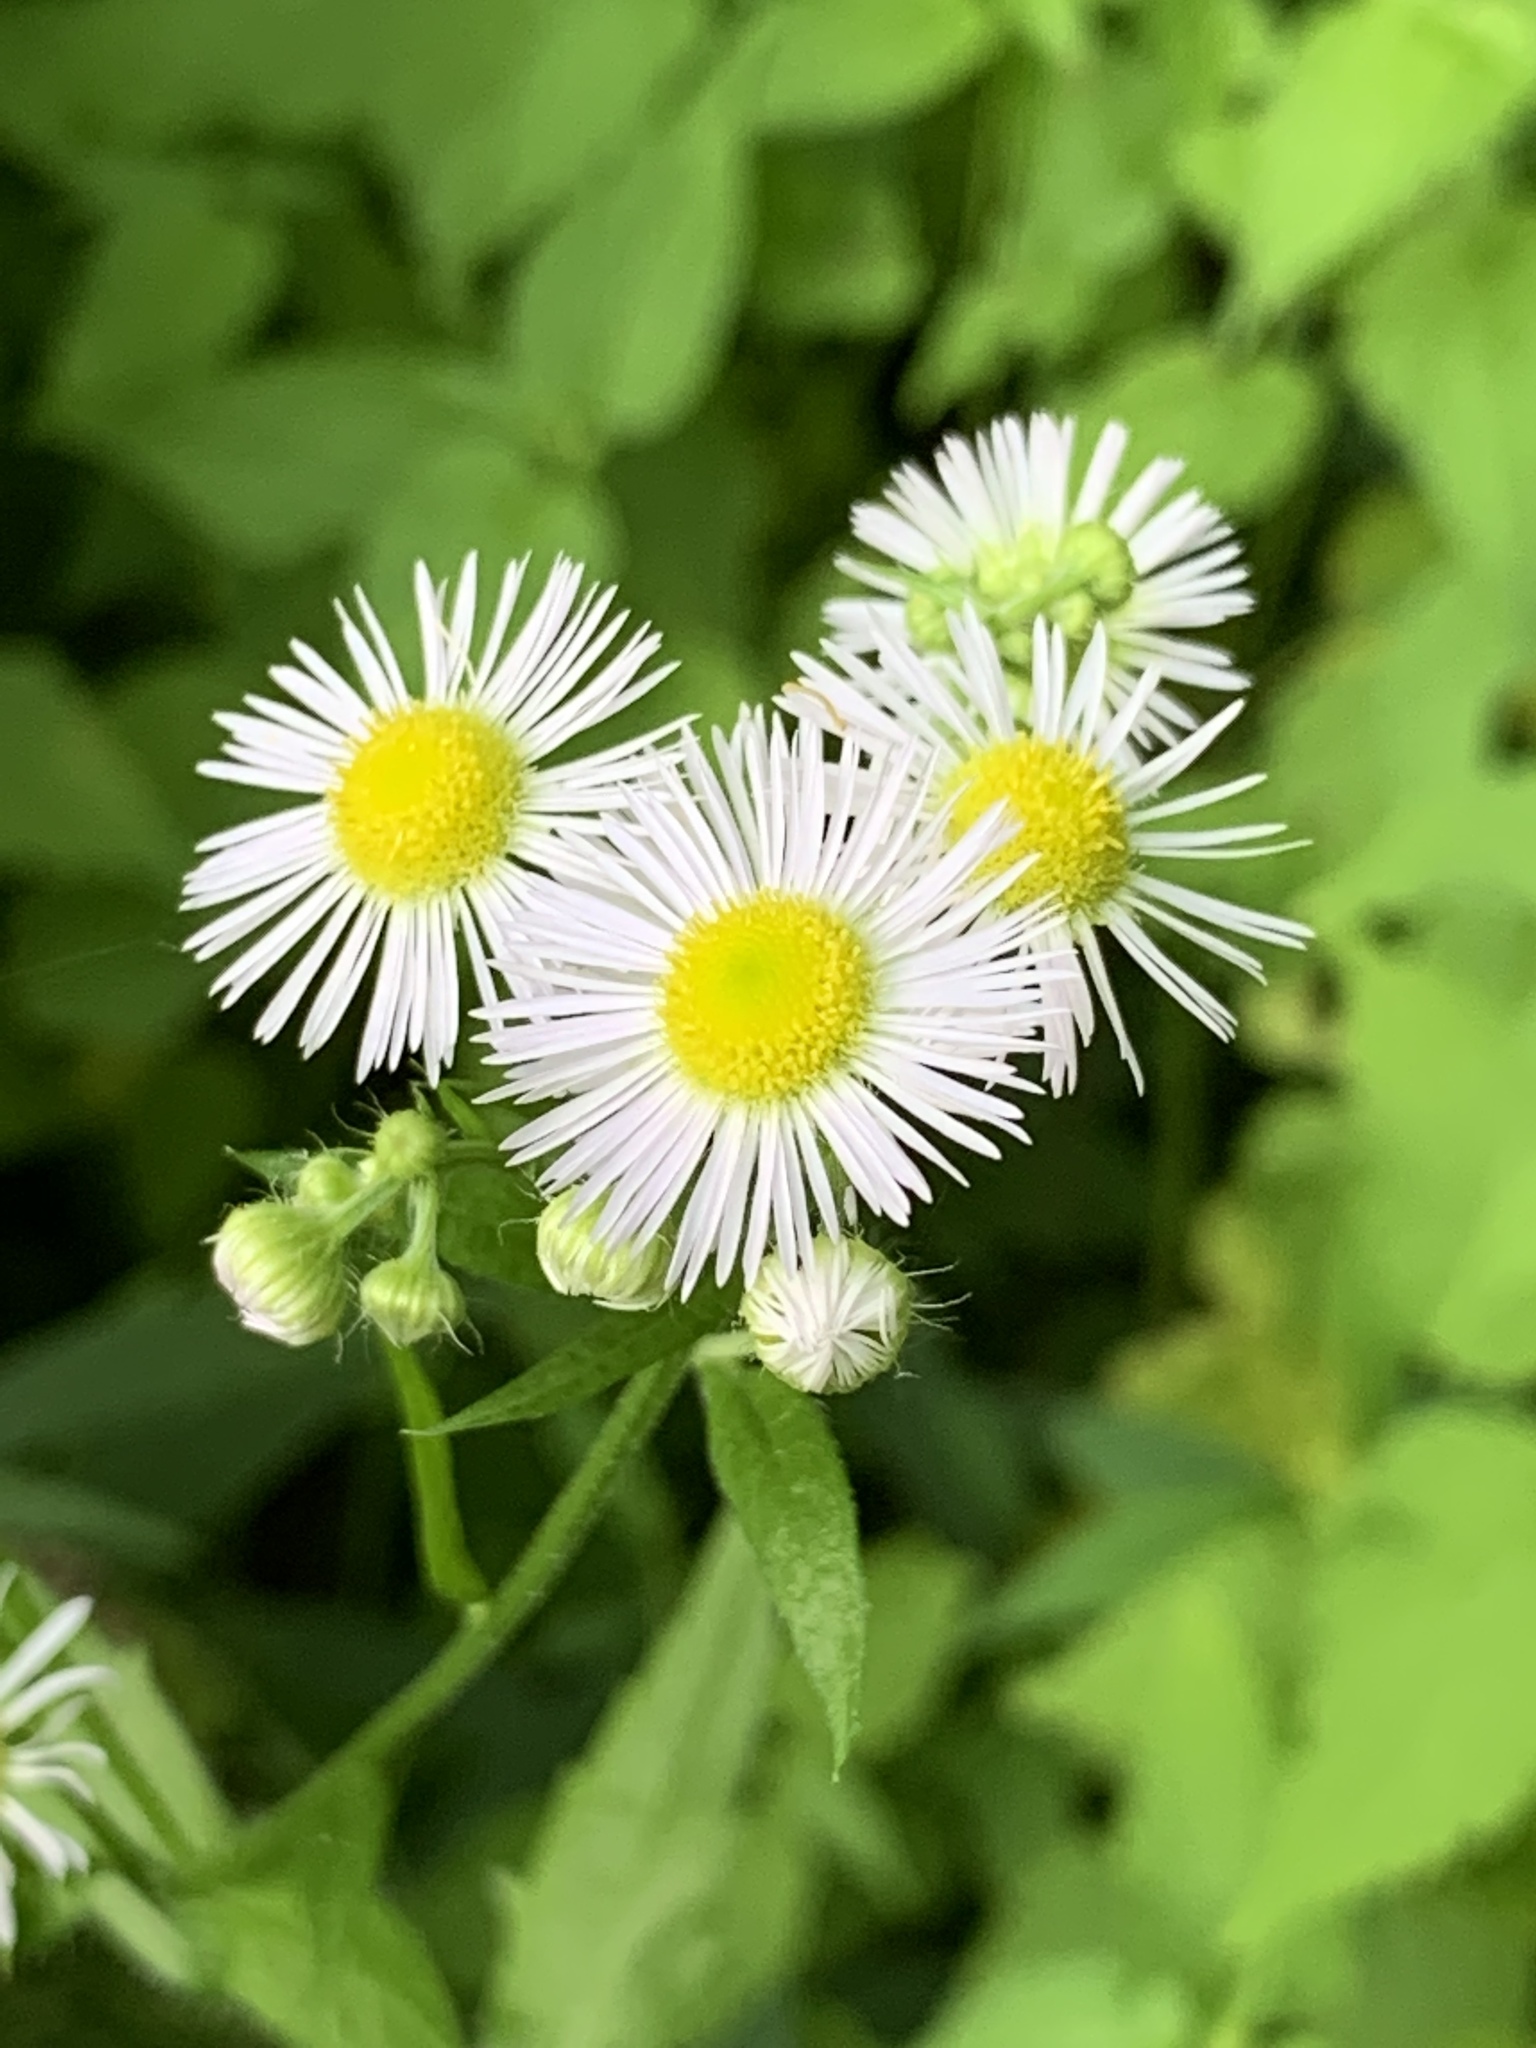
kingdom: Plantae
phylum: Tracheophyta
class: Magnoliopsida
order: Asterales
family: Asteraceae
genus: Erigeron
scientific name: Erigeron strigosus
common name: Common eastern fleabane
